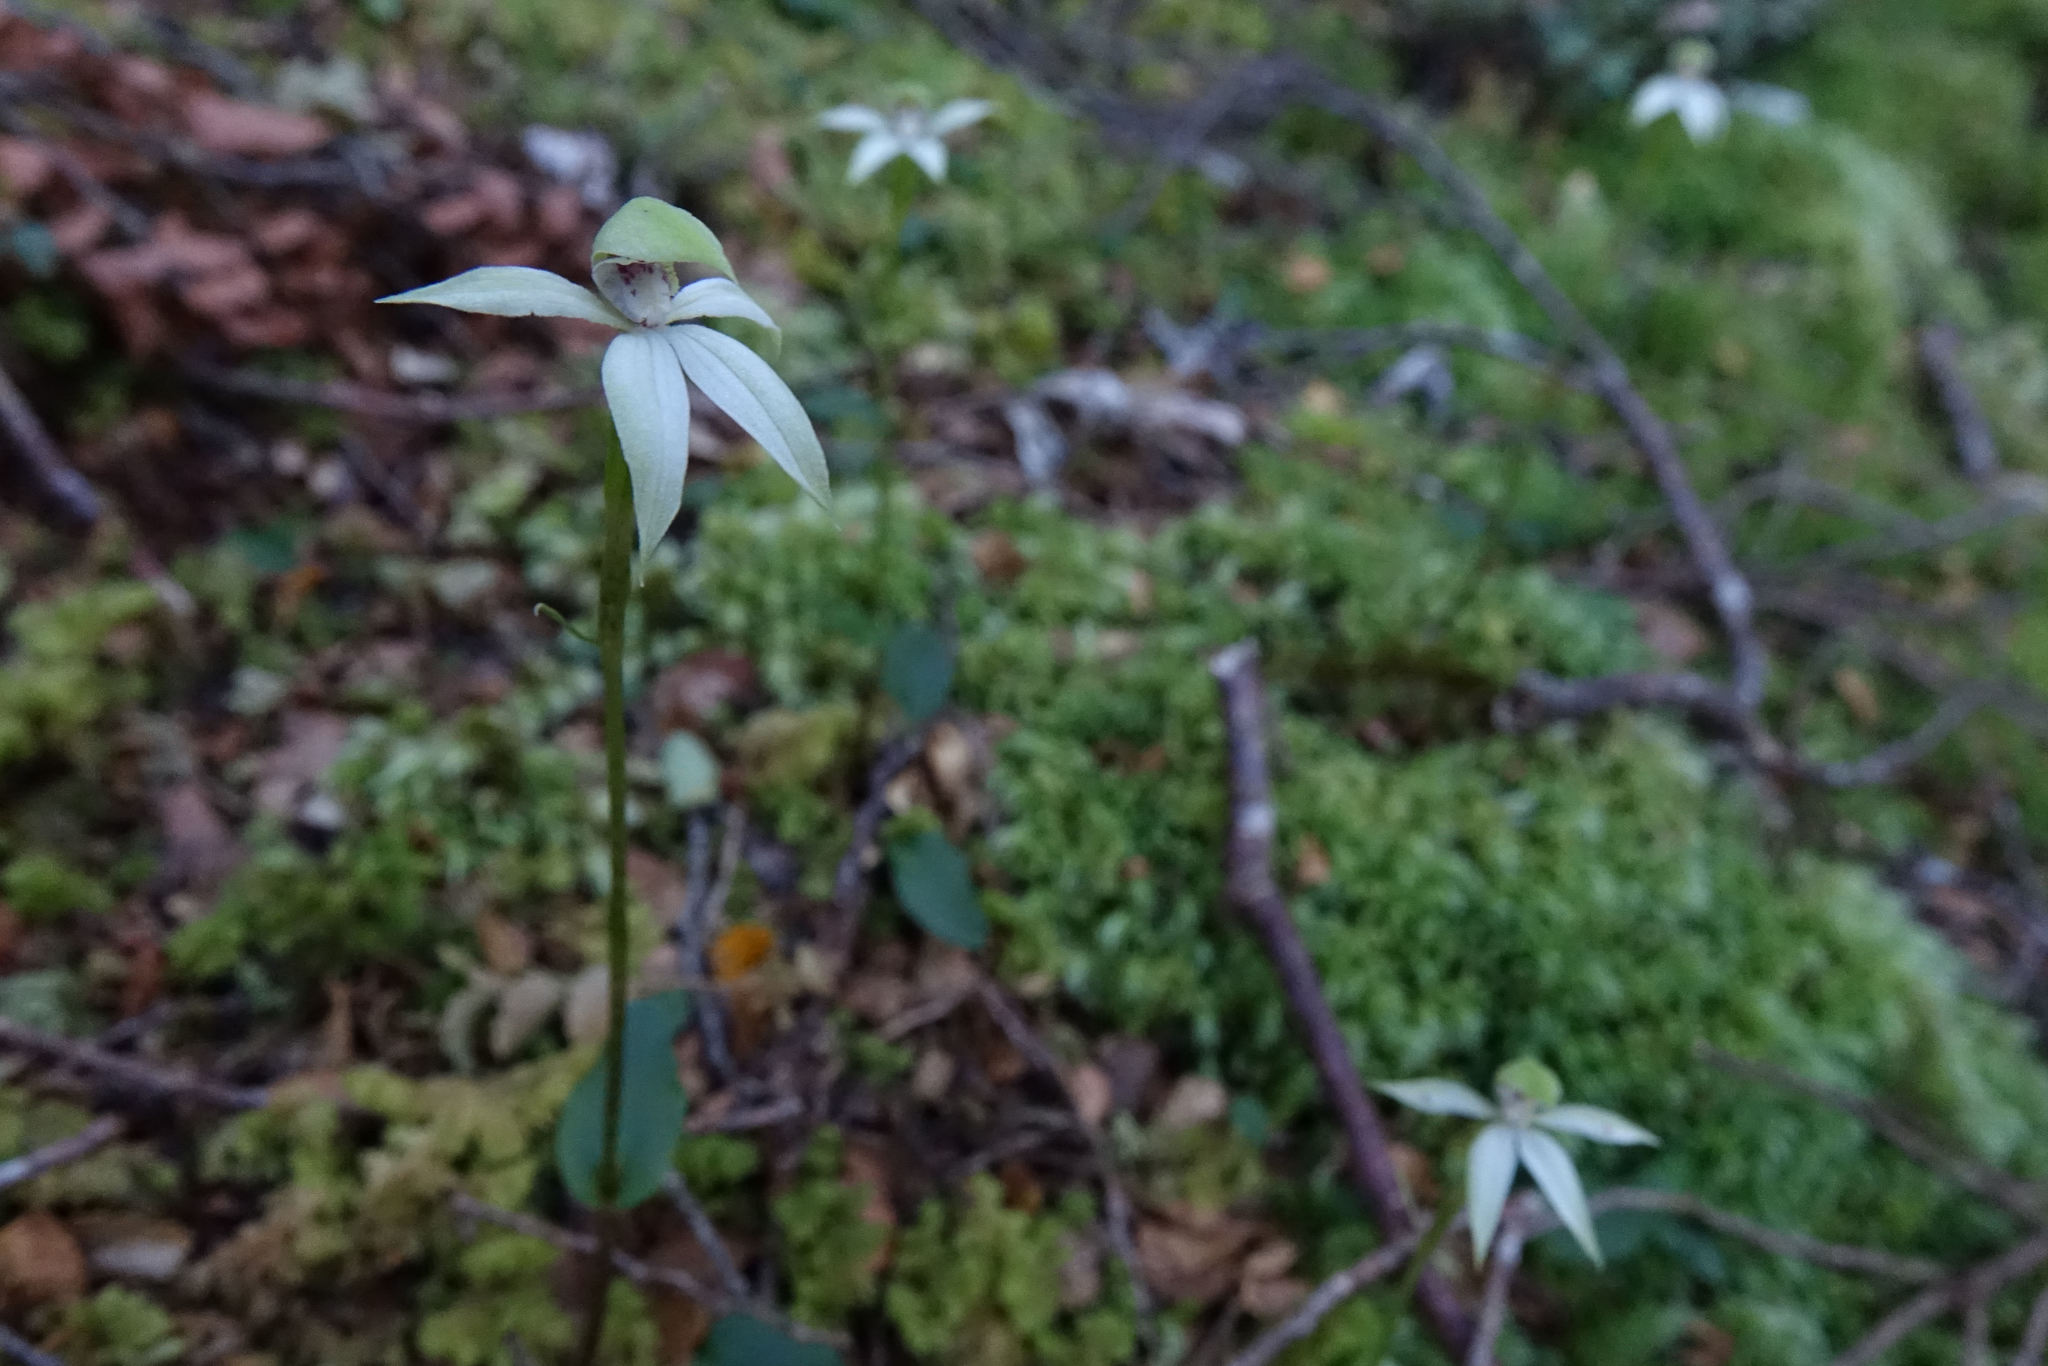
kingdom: Plantae
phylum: Tracheophyta
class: Liliopsida
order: Asparagales
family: Orchidaceae
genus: Adenochilus
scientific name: Adenochilus gracilis
